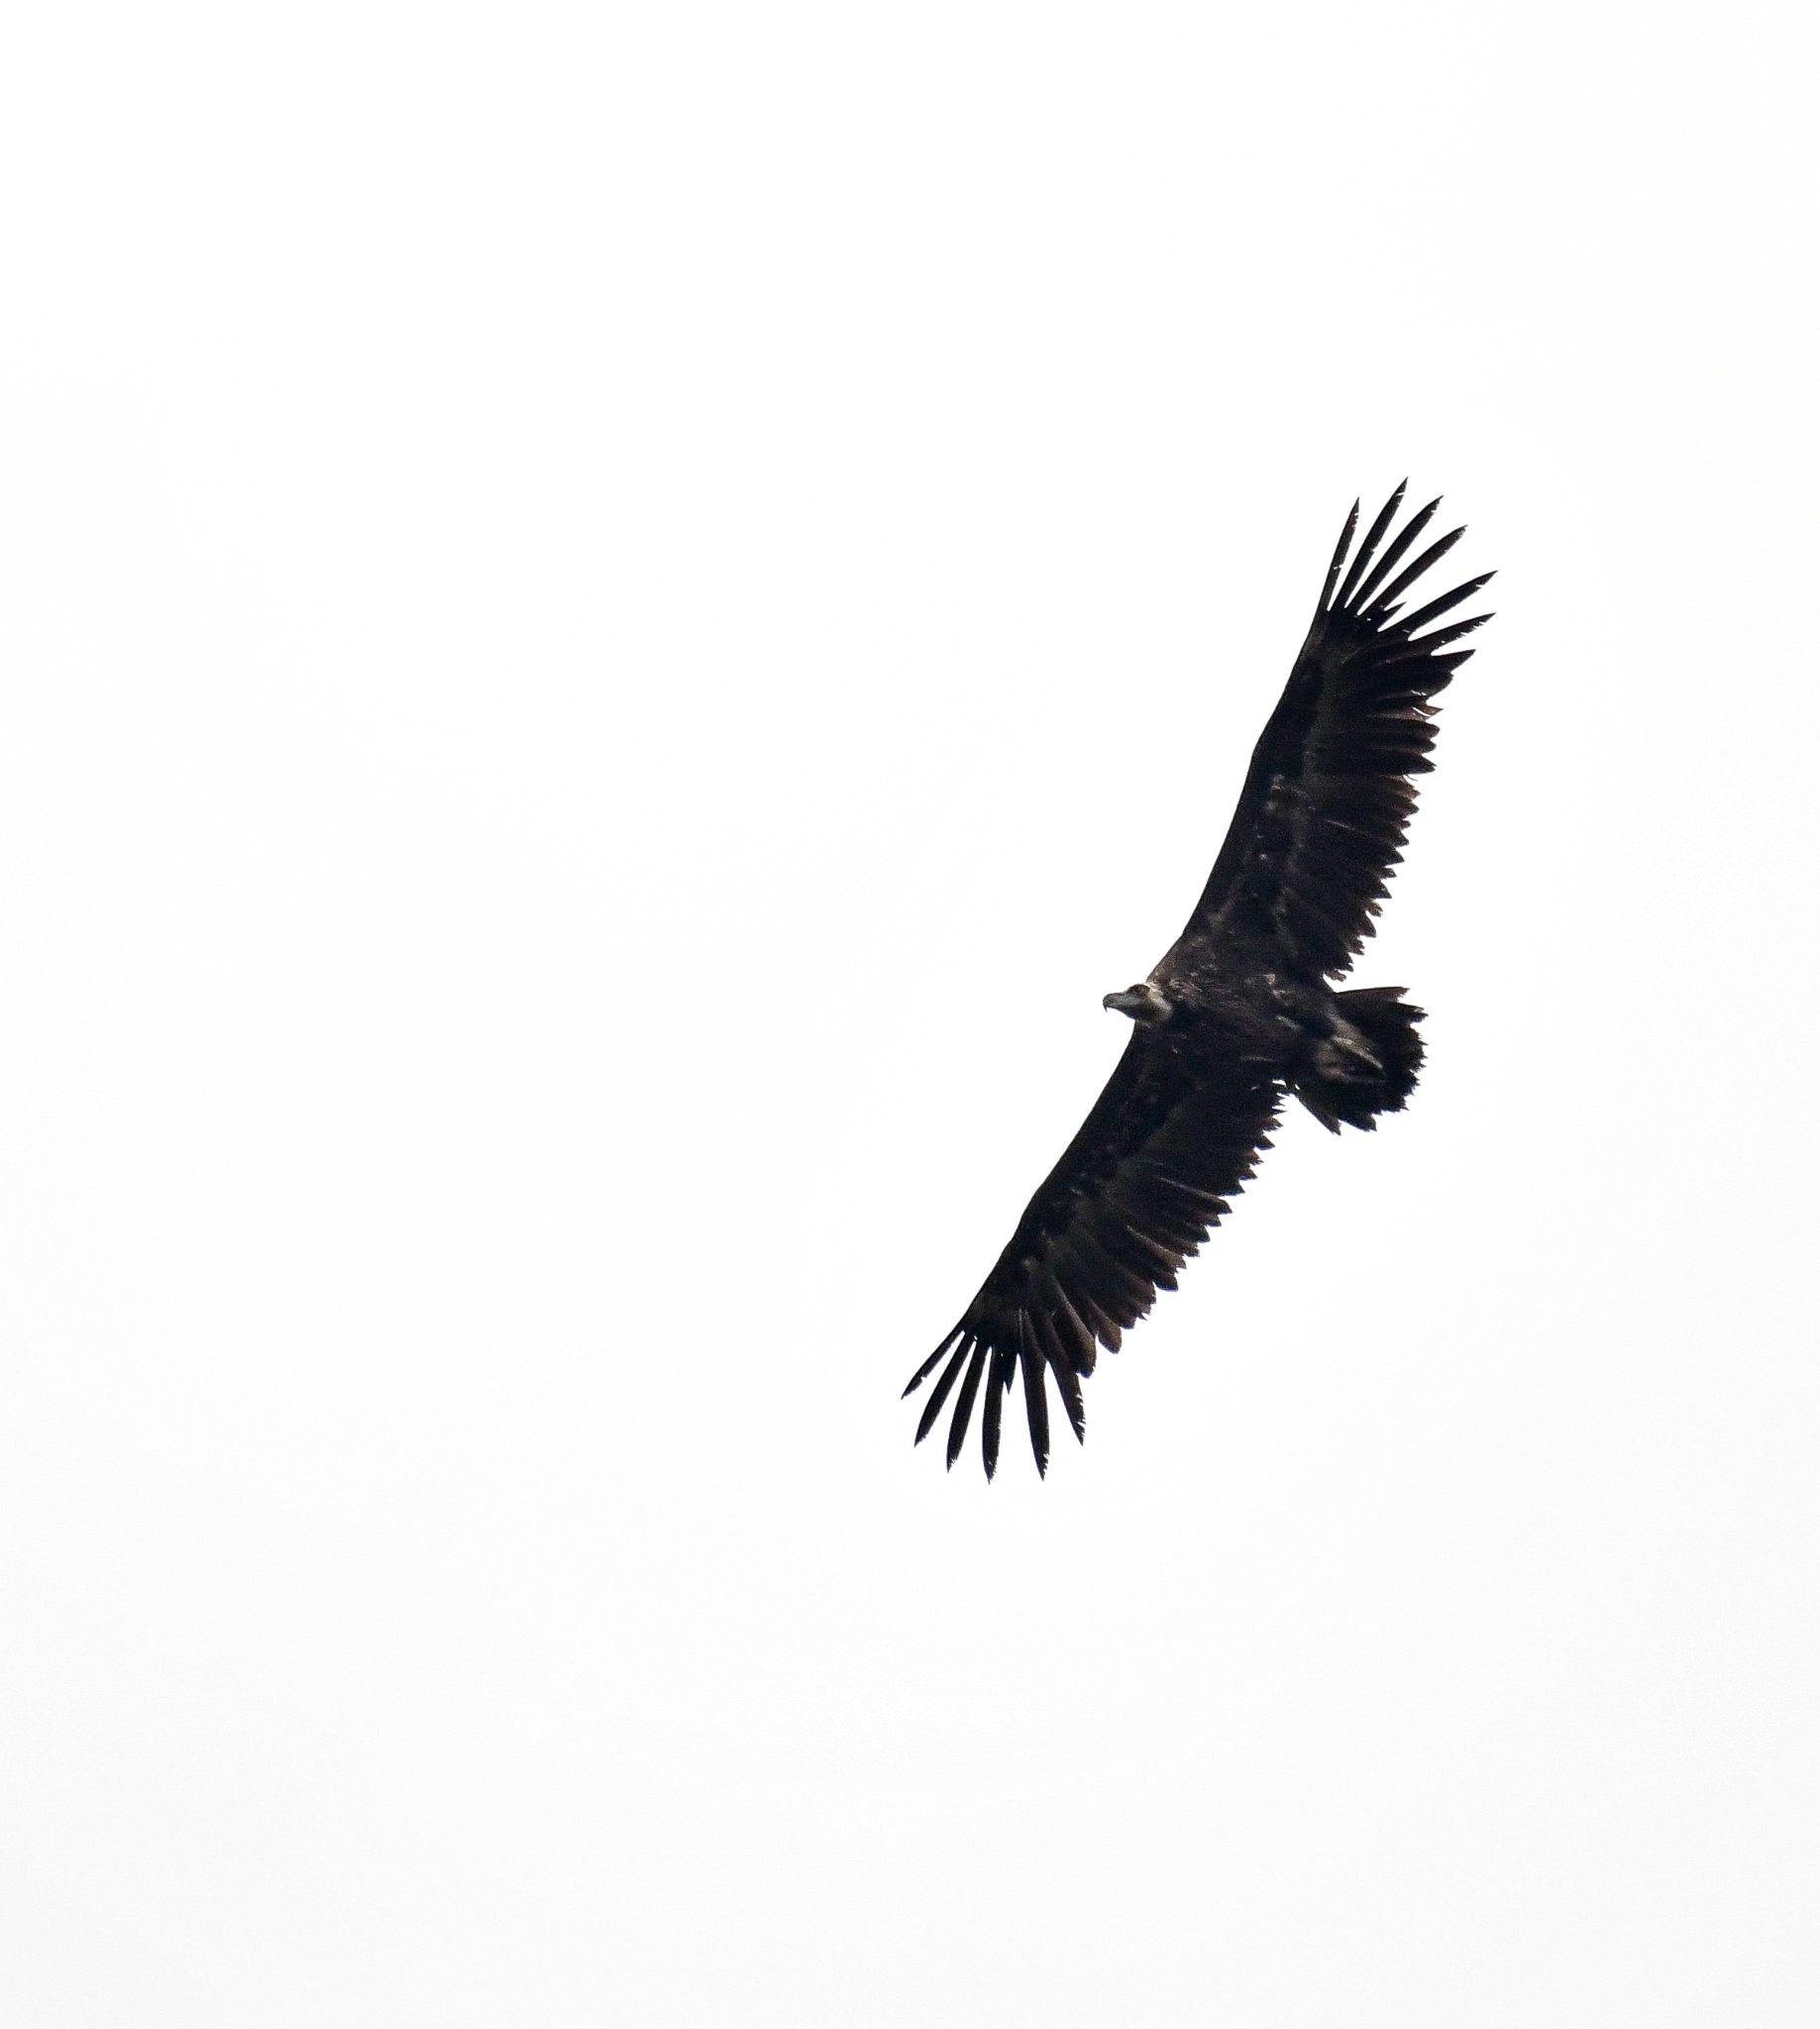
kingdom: Animalia
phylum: Chordata
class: Aves
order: Accipitriformes
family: Accipitridae
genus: Aegypius
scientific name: Aegypius monachus
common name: Cinereous vulture
